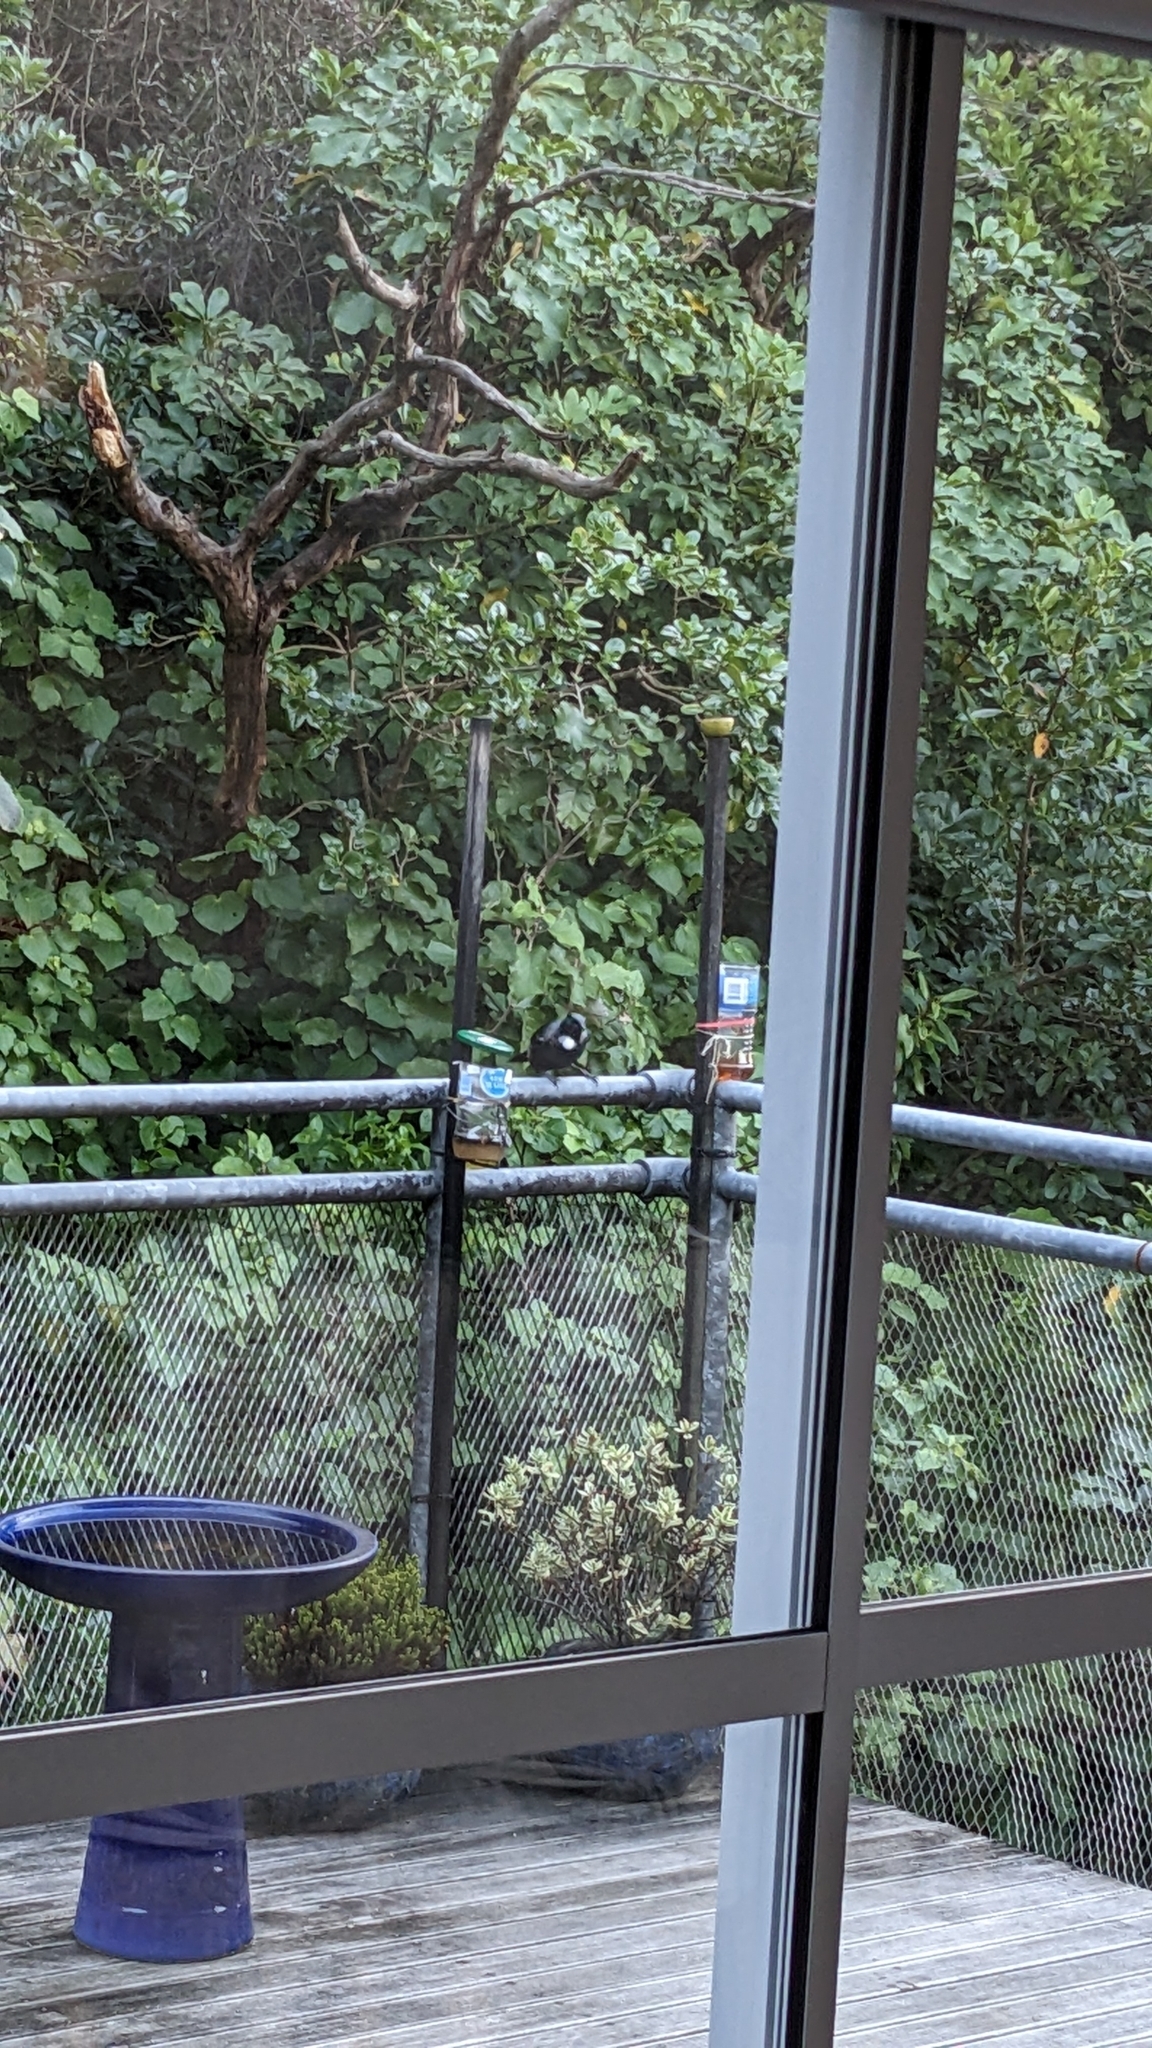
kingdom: Animalia
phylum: Chordata
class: Aves
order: Passeriformes
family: Meliphagidae
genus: Prosthemadera
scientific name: Prosthemadera novaeseelandiae
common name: Tui
